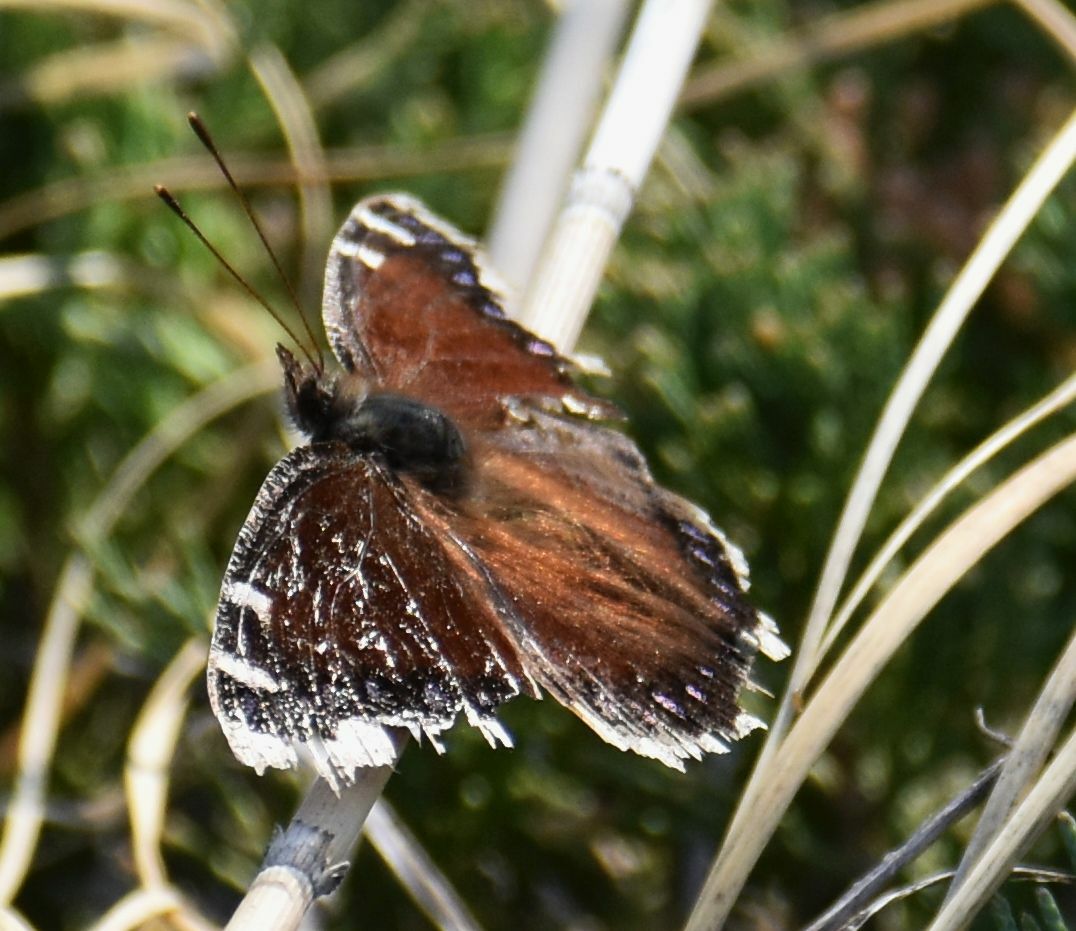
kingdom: Animalia
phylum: Arthropoda
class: Insecta
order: Lepidoptera
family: Nymphalidae
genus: Nymphalis
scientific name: Nymphalis antiopa
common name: Camberwell beauty
